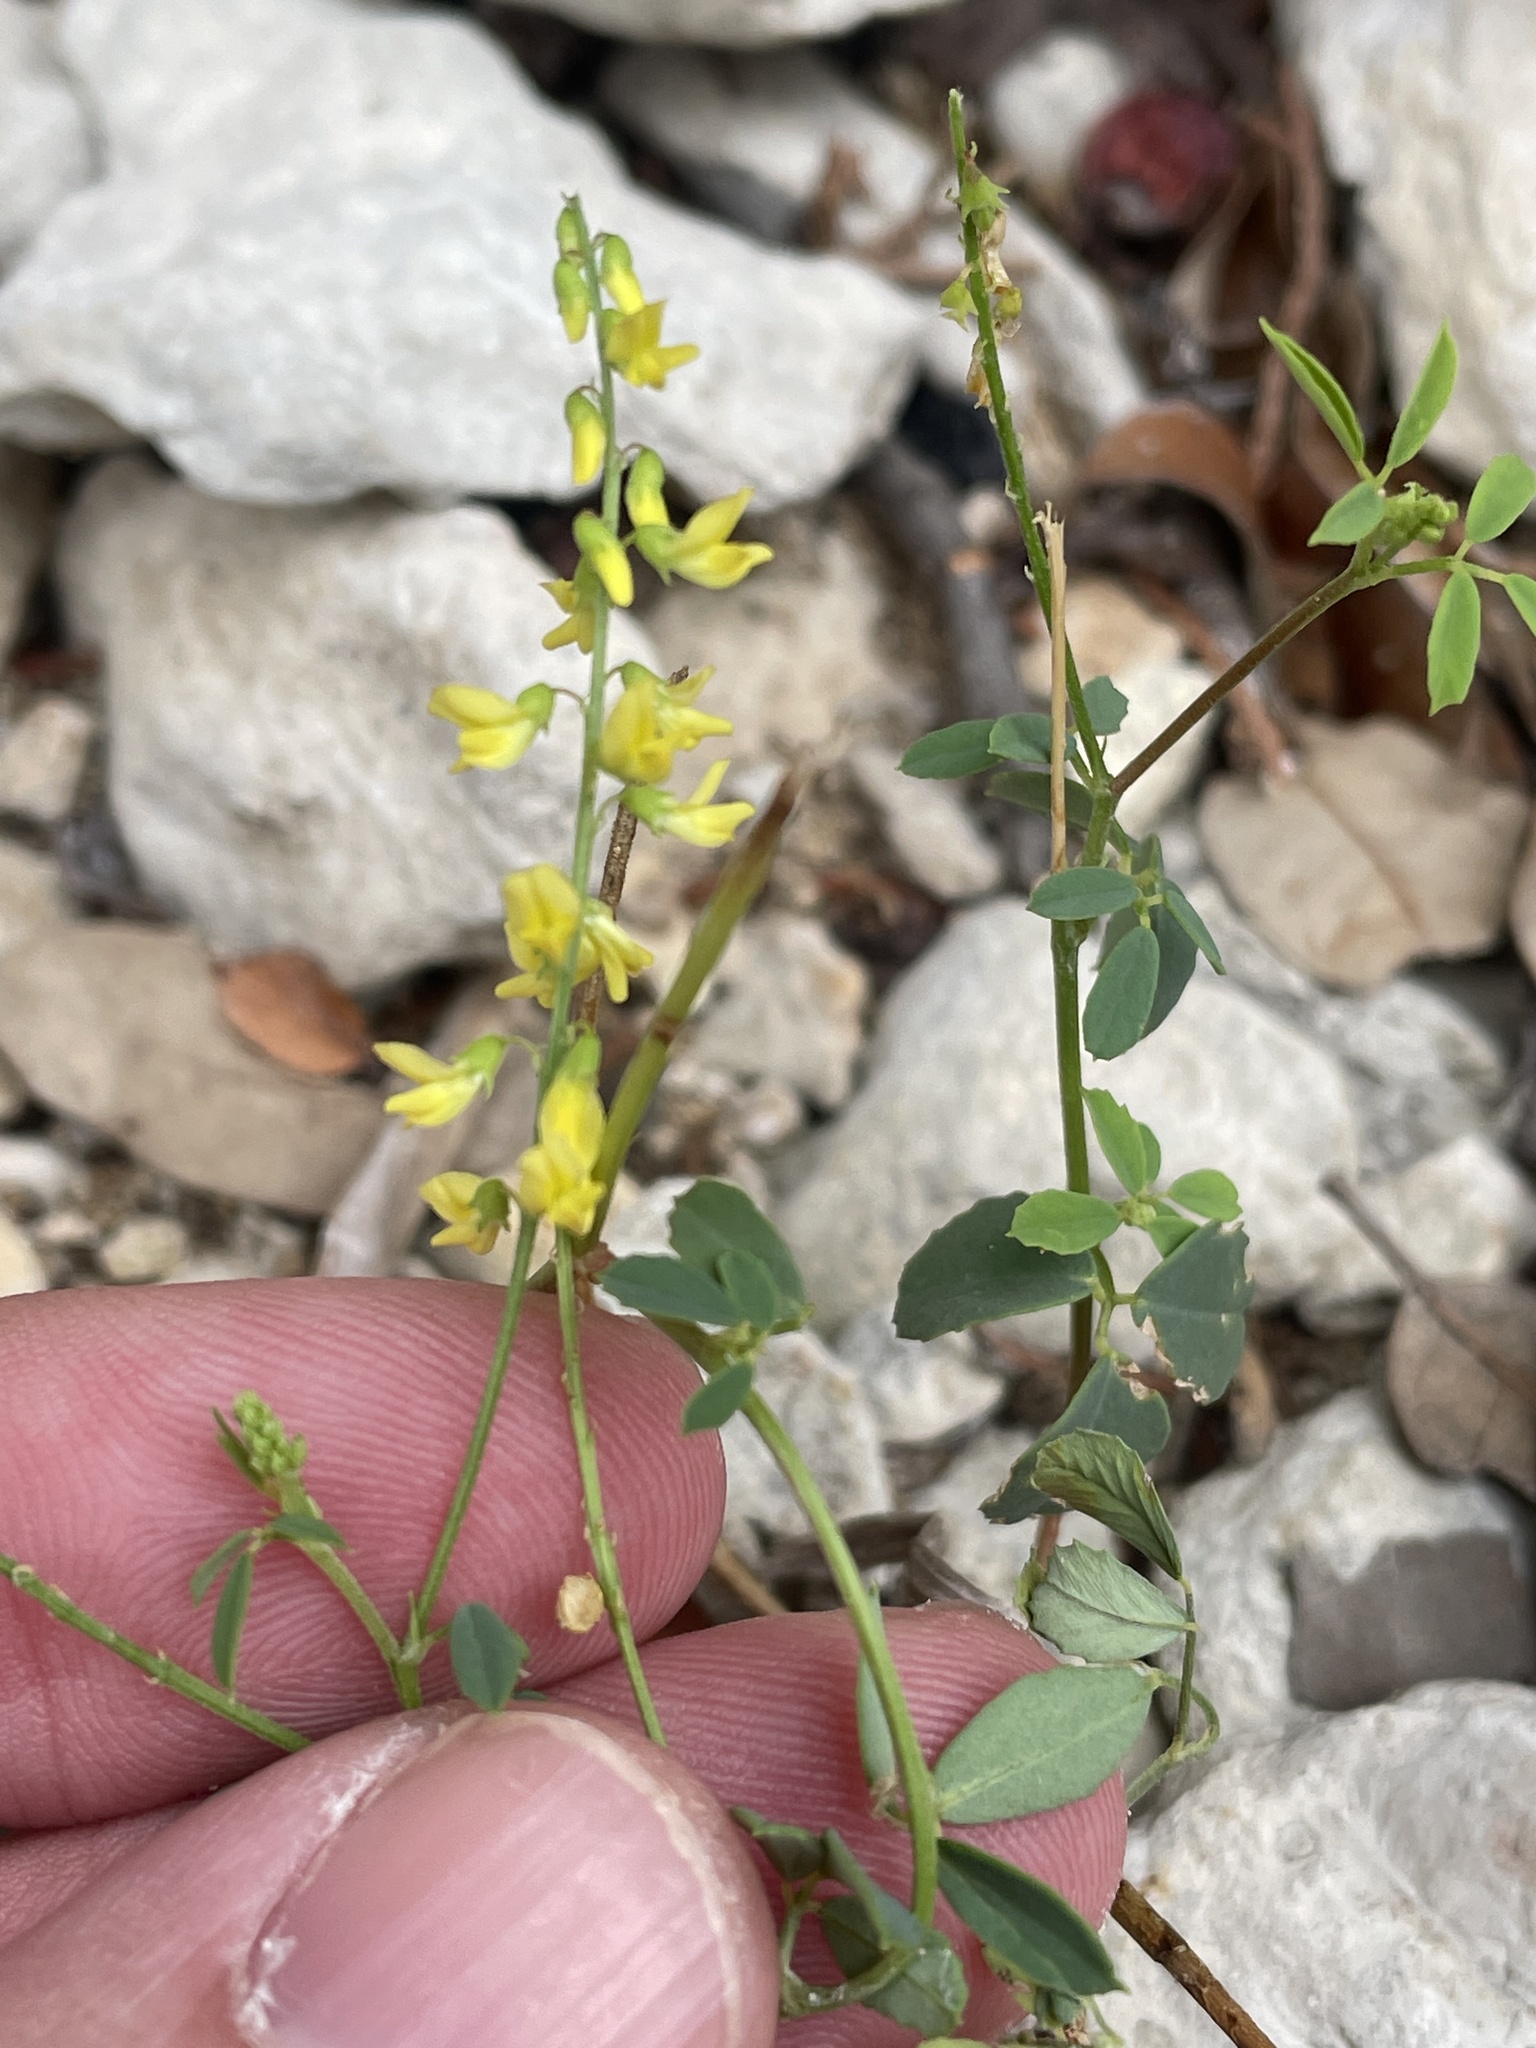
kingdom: Plantae
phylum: Tracheophyta
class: Magnoliopsida
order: Fabales
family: Fabaceae
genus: Melilotus
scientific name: Melilotus officinalis
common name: Sweetclover
